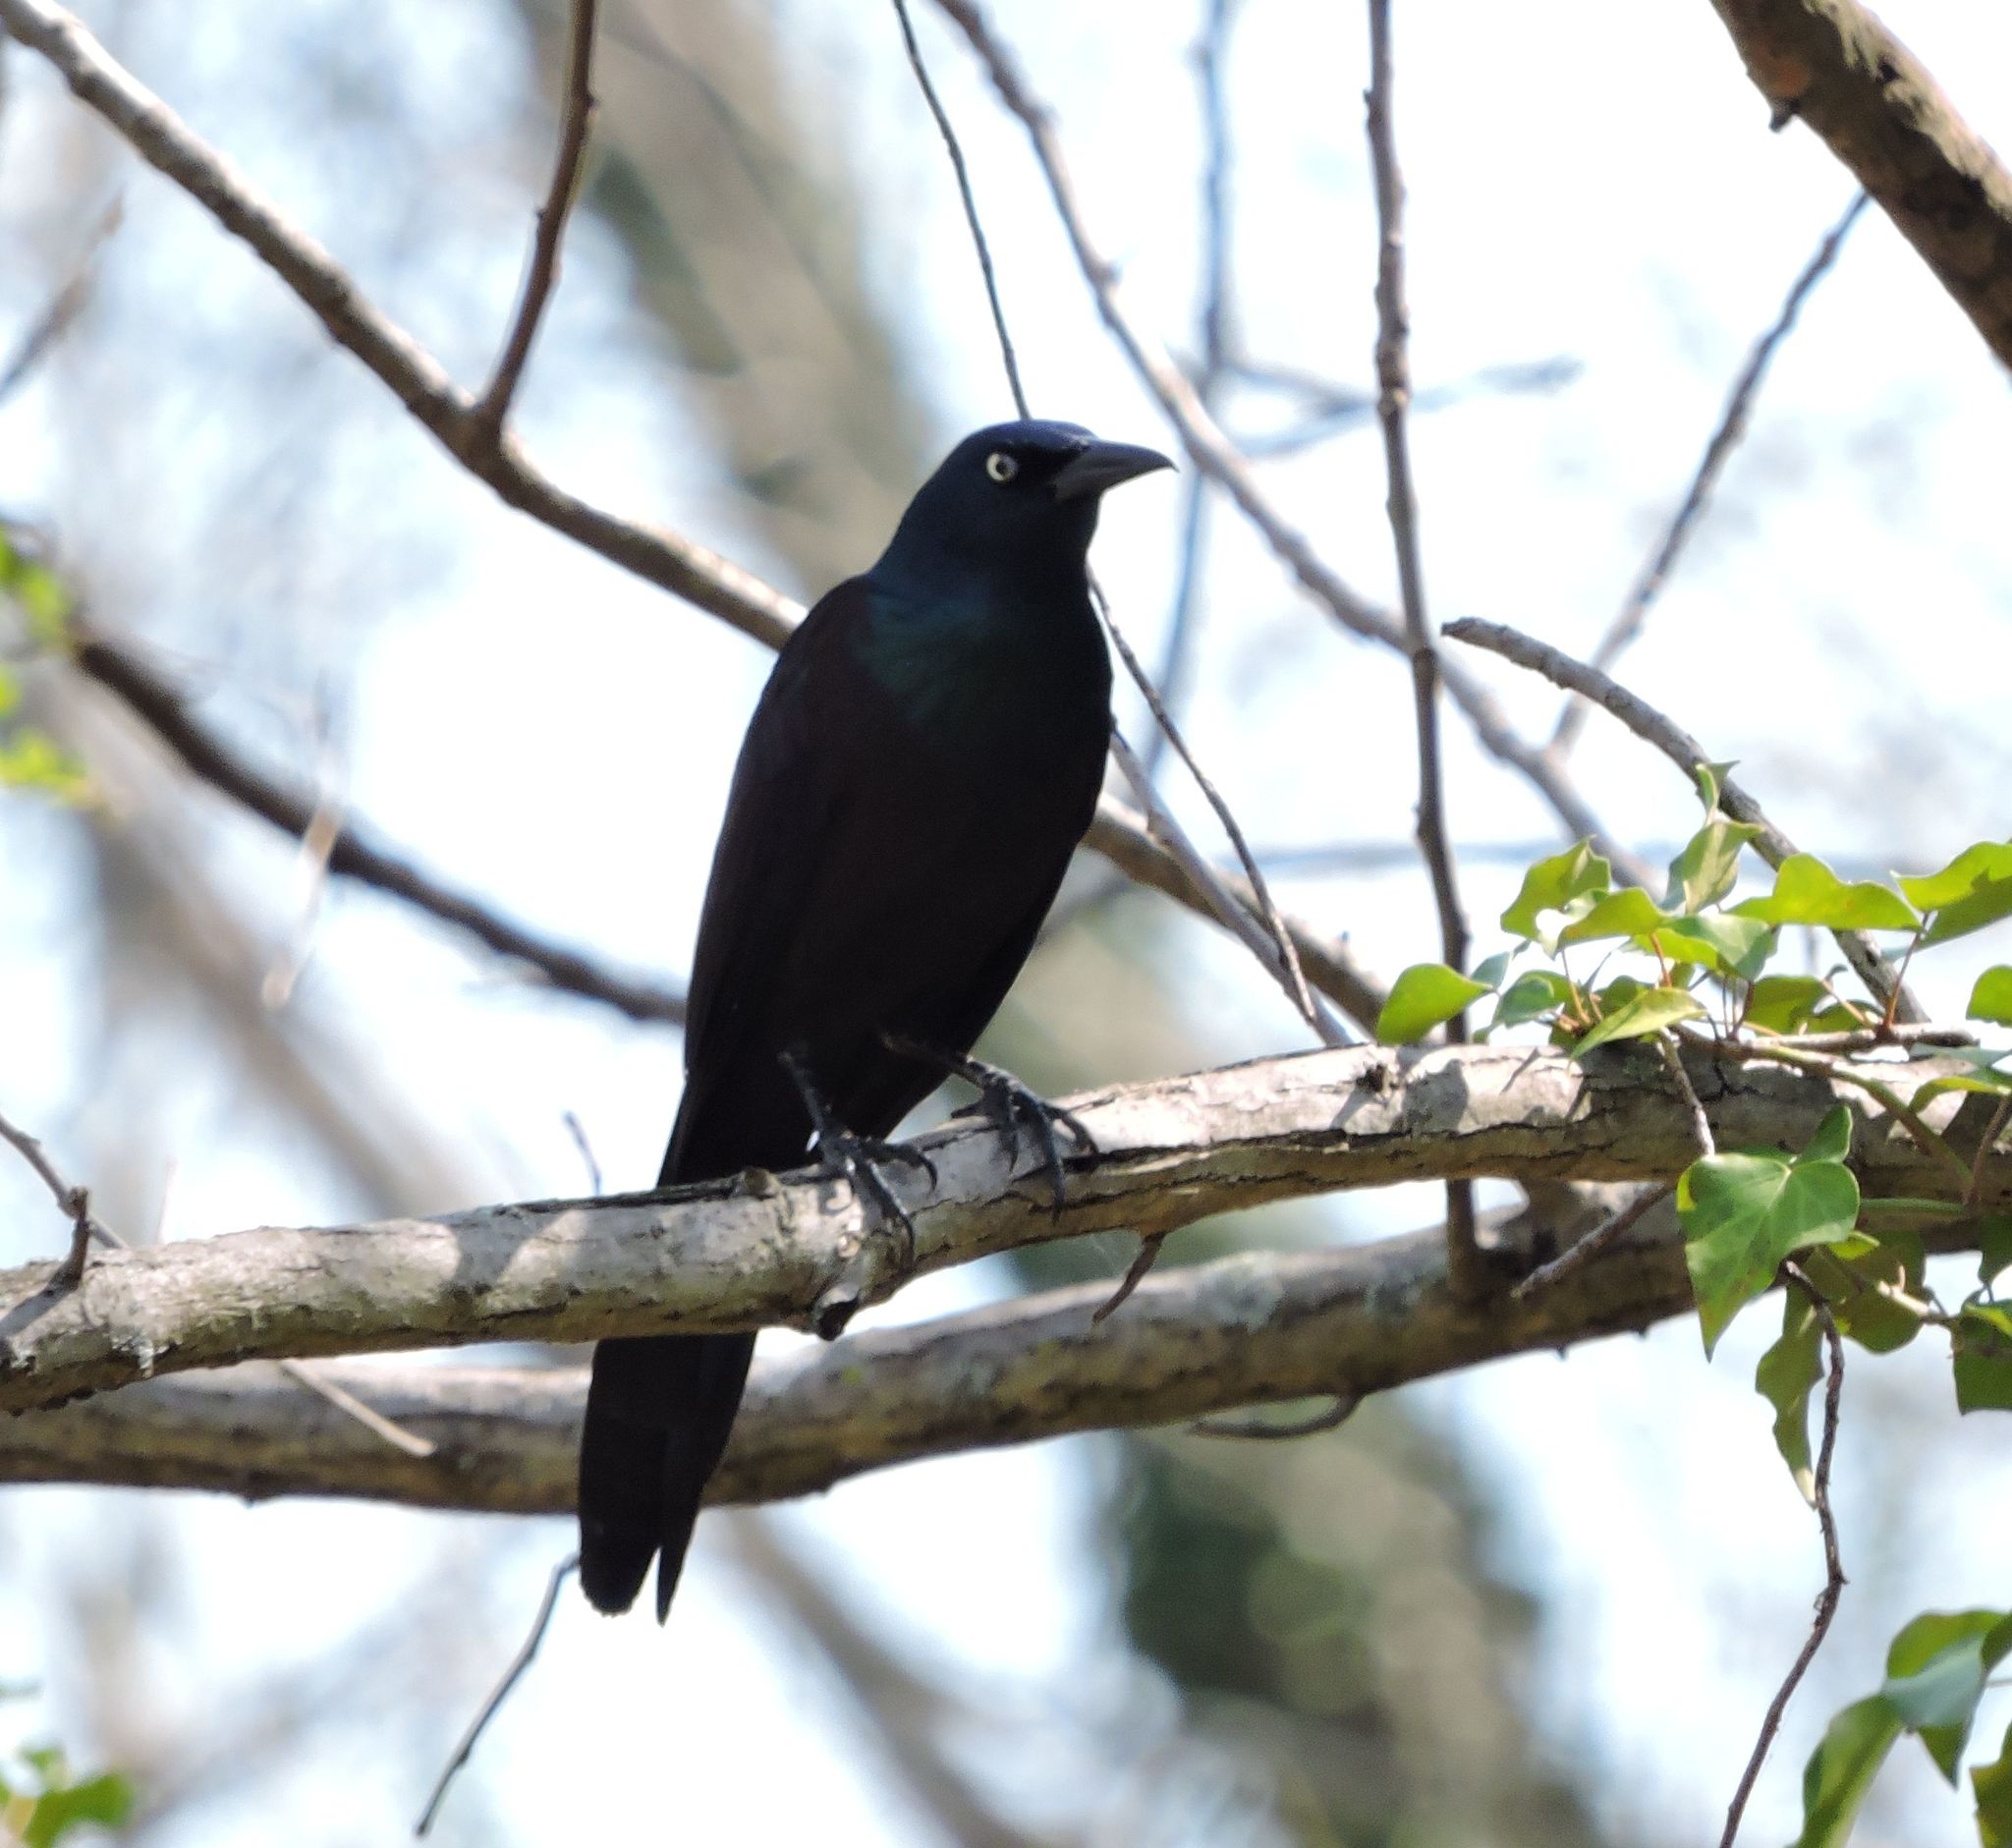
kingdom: Animalia
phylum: Chordata
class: Aves
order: Passeriformes
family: Icteridae
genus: Quiscalus
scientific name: Quiscalus quiscula
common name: Common grackle
